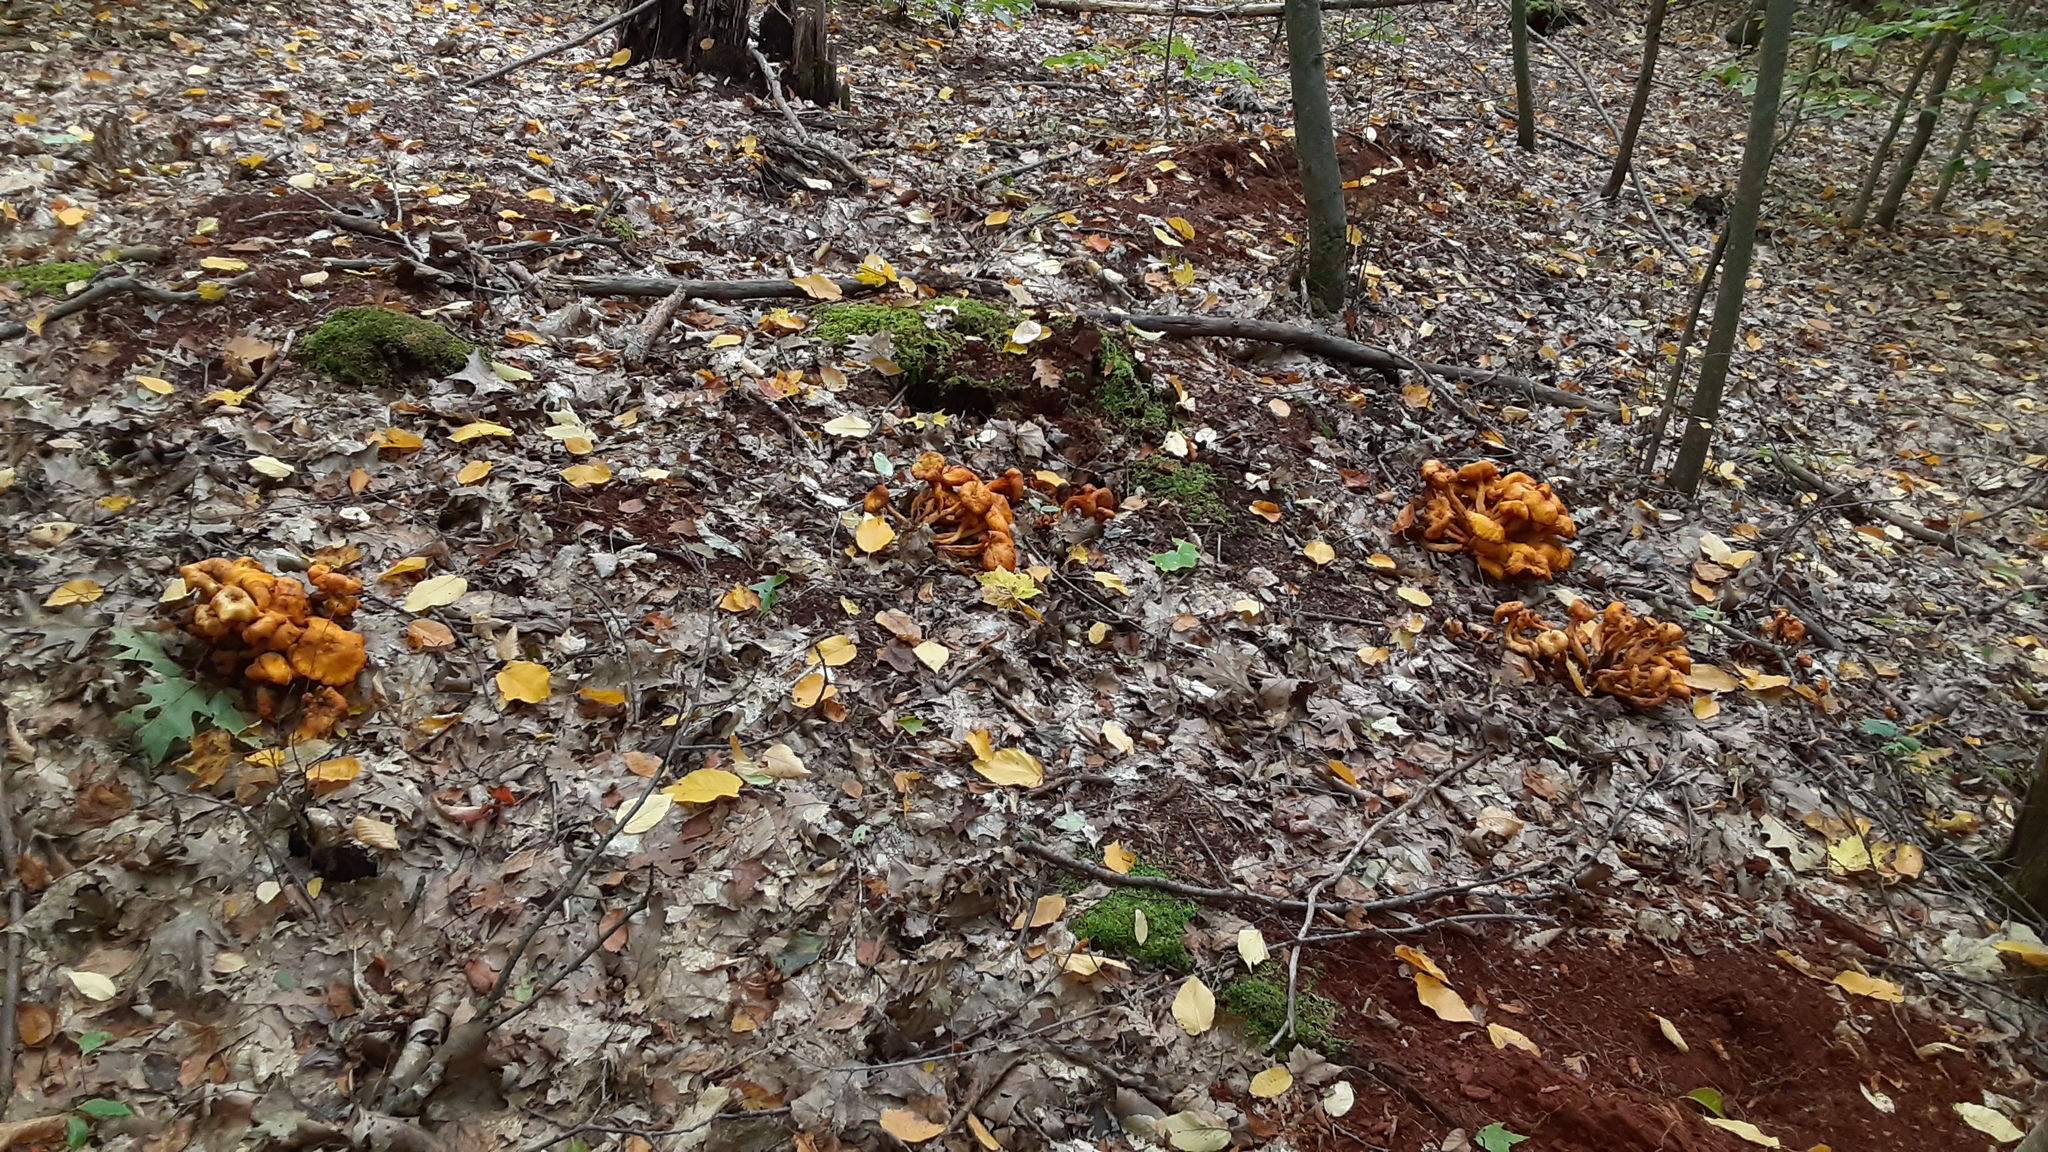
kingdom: Fungi
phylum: Basidiomycota
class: Agaricomycetes
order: Agaricales
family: Omphalotaceae
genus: Omphalotus
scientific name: Omphalotus illudens
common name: Jack o lantern
